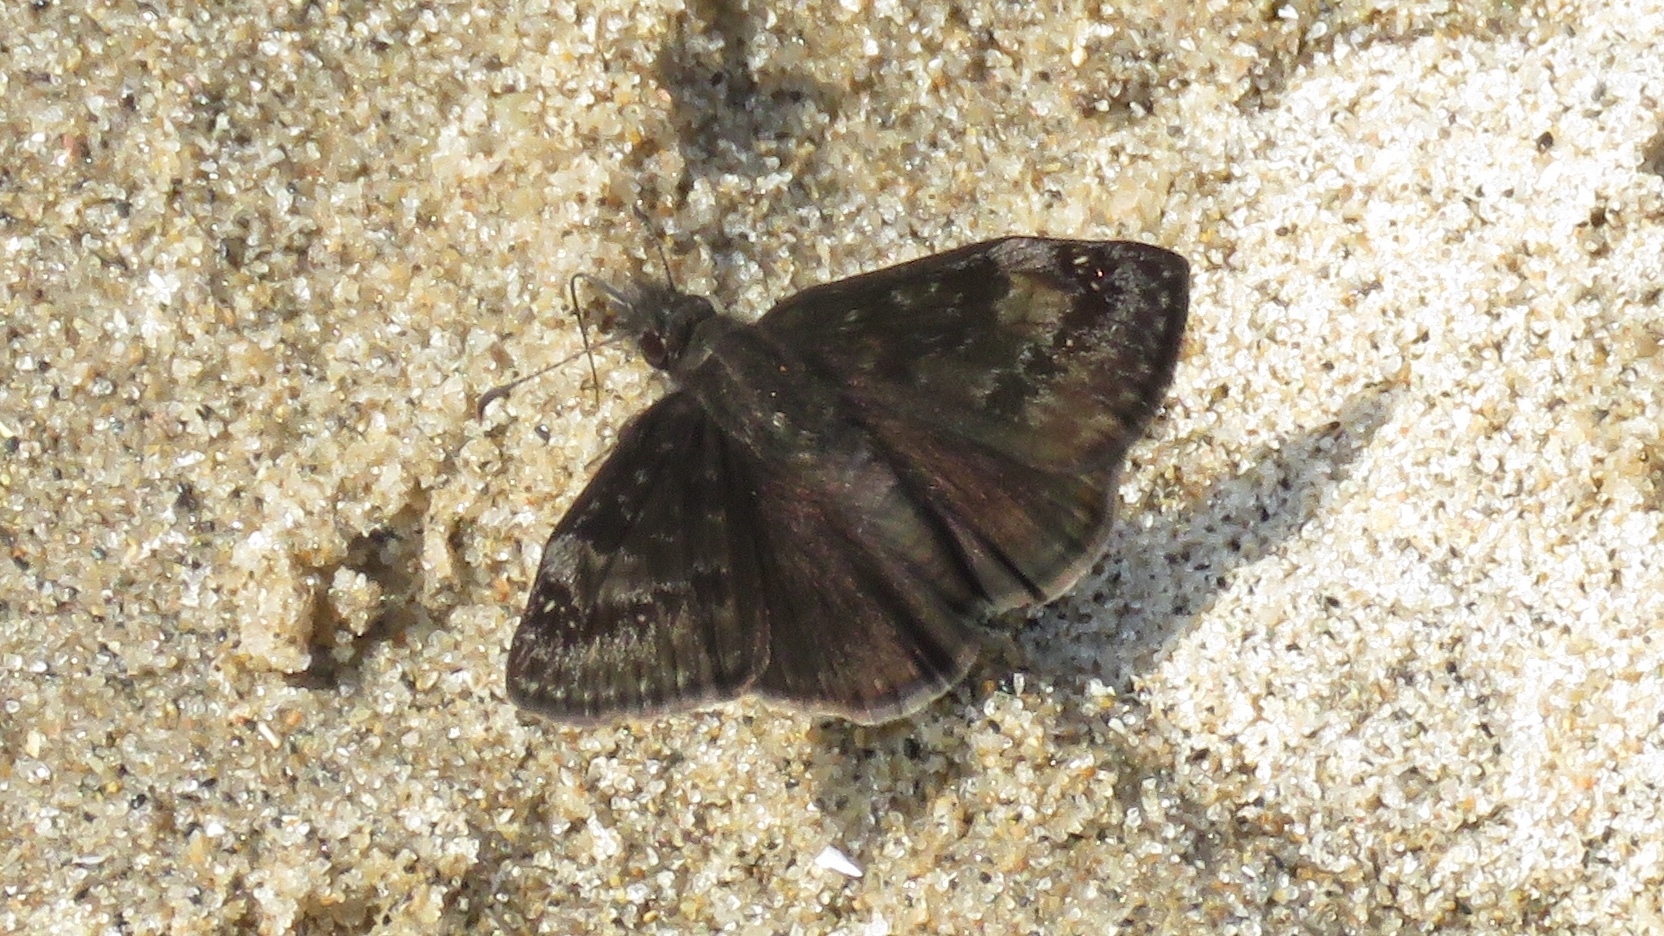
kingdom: Animalia
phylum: Arthropoda
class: Insecta
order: Lepidoptera
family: Hesperiidae
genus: Erynnis
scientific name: Erynnis baptisiae
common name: Wild indigo duskywing
